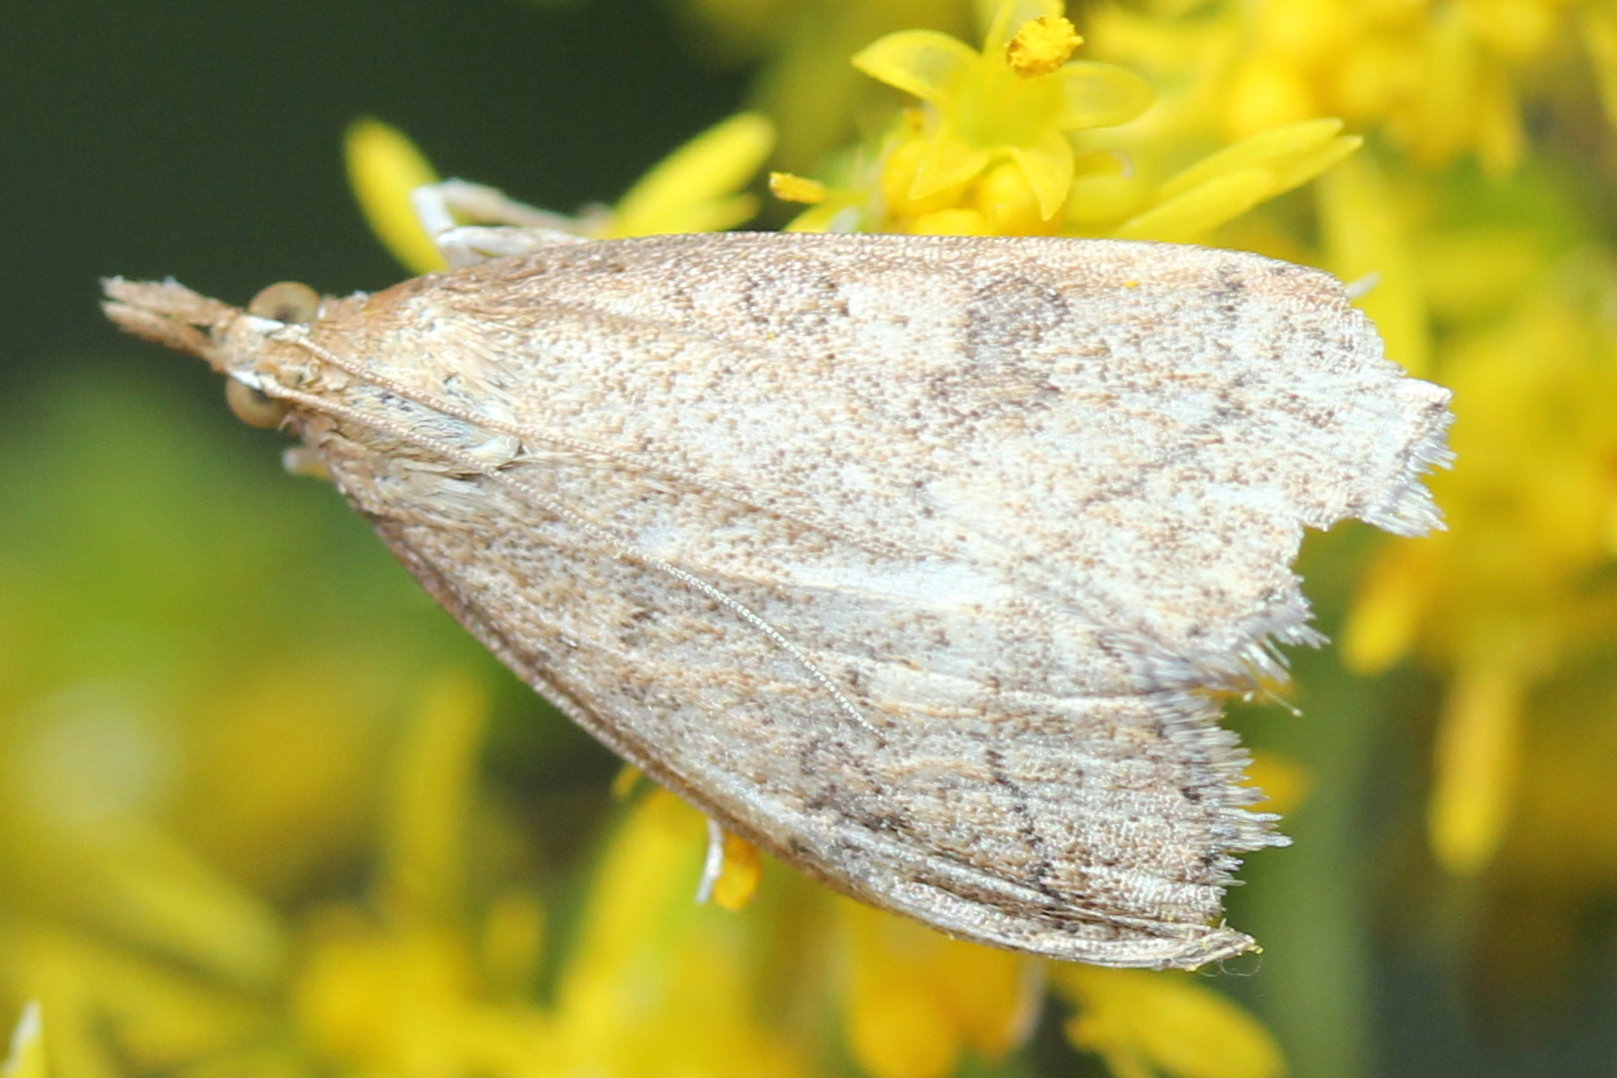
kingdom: Animalia
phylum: Arthropoda
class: Insecta
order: Lepidoptera
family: Crambidae
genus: Udea
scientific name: Udea rubigalis
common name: Celery leaftier moth
